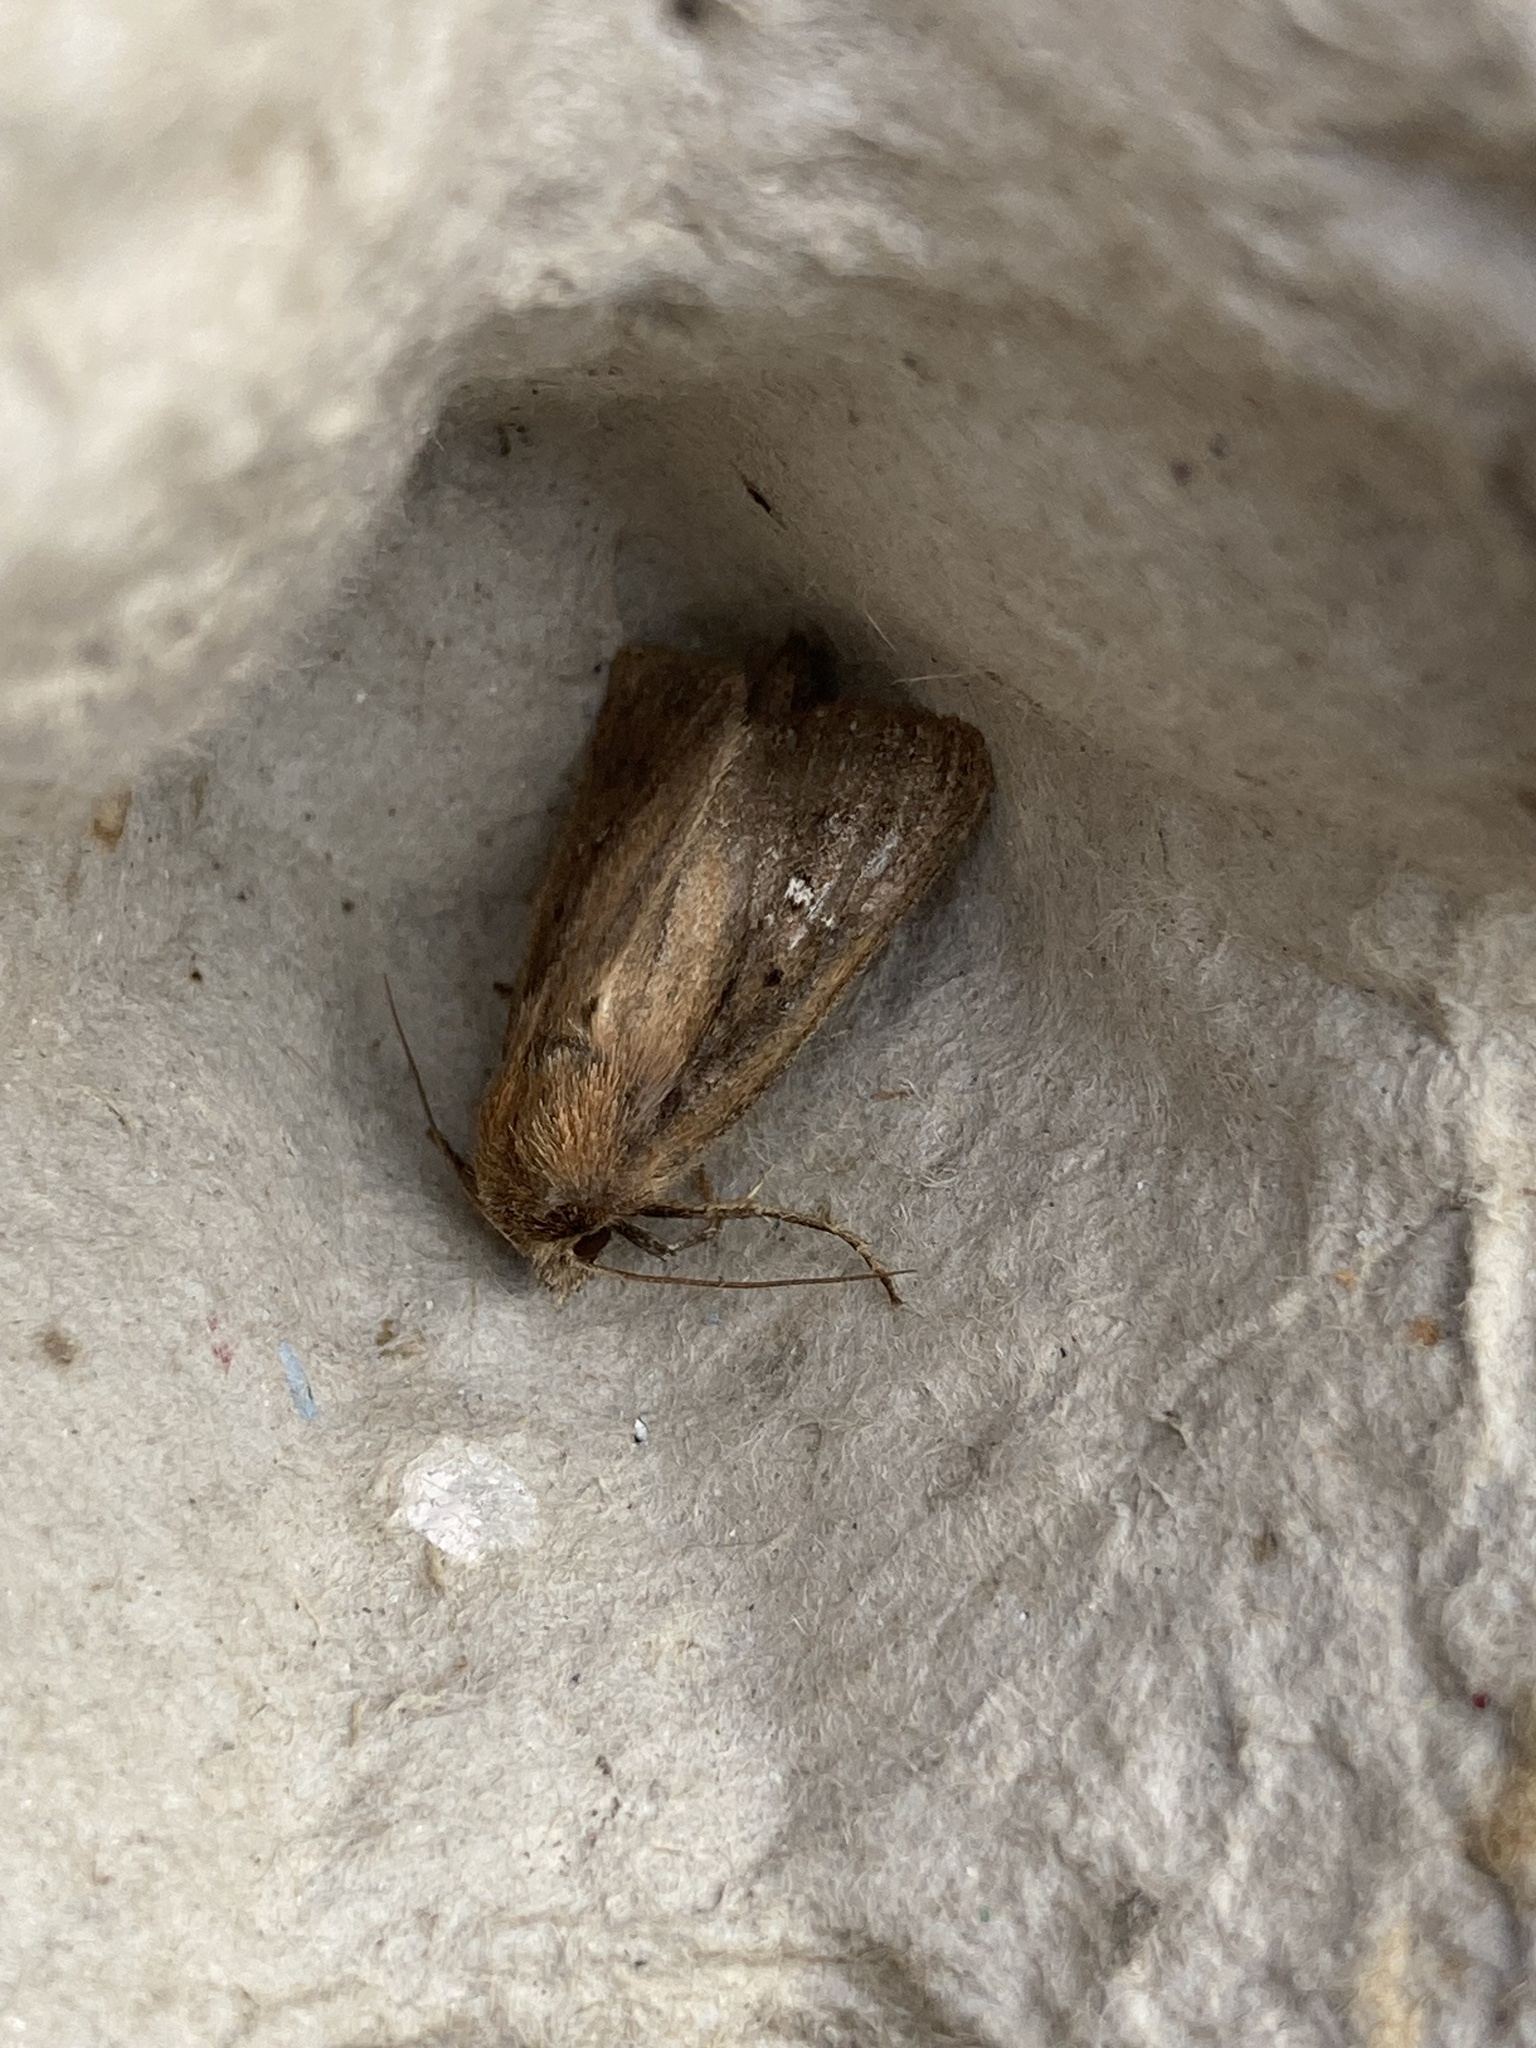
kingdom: Animalia
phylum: Arthropoda
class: Insecta
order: Lepidoptera
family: Noctuidae
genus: Lenisa
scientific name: Lenisa geminipuncta
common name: Twin-spotted wainscot
